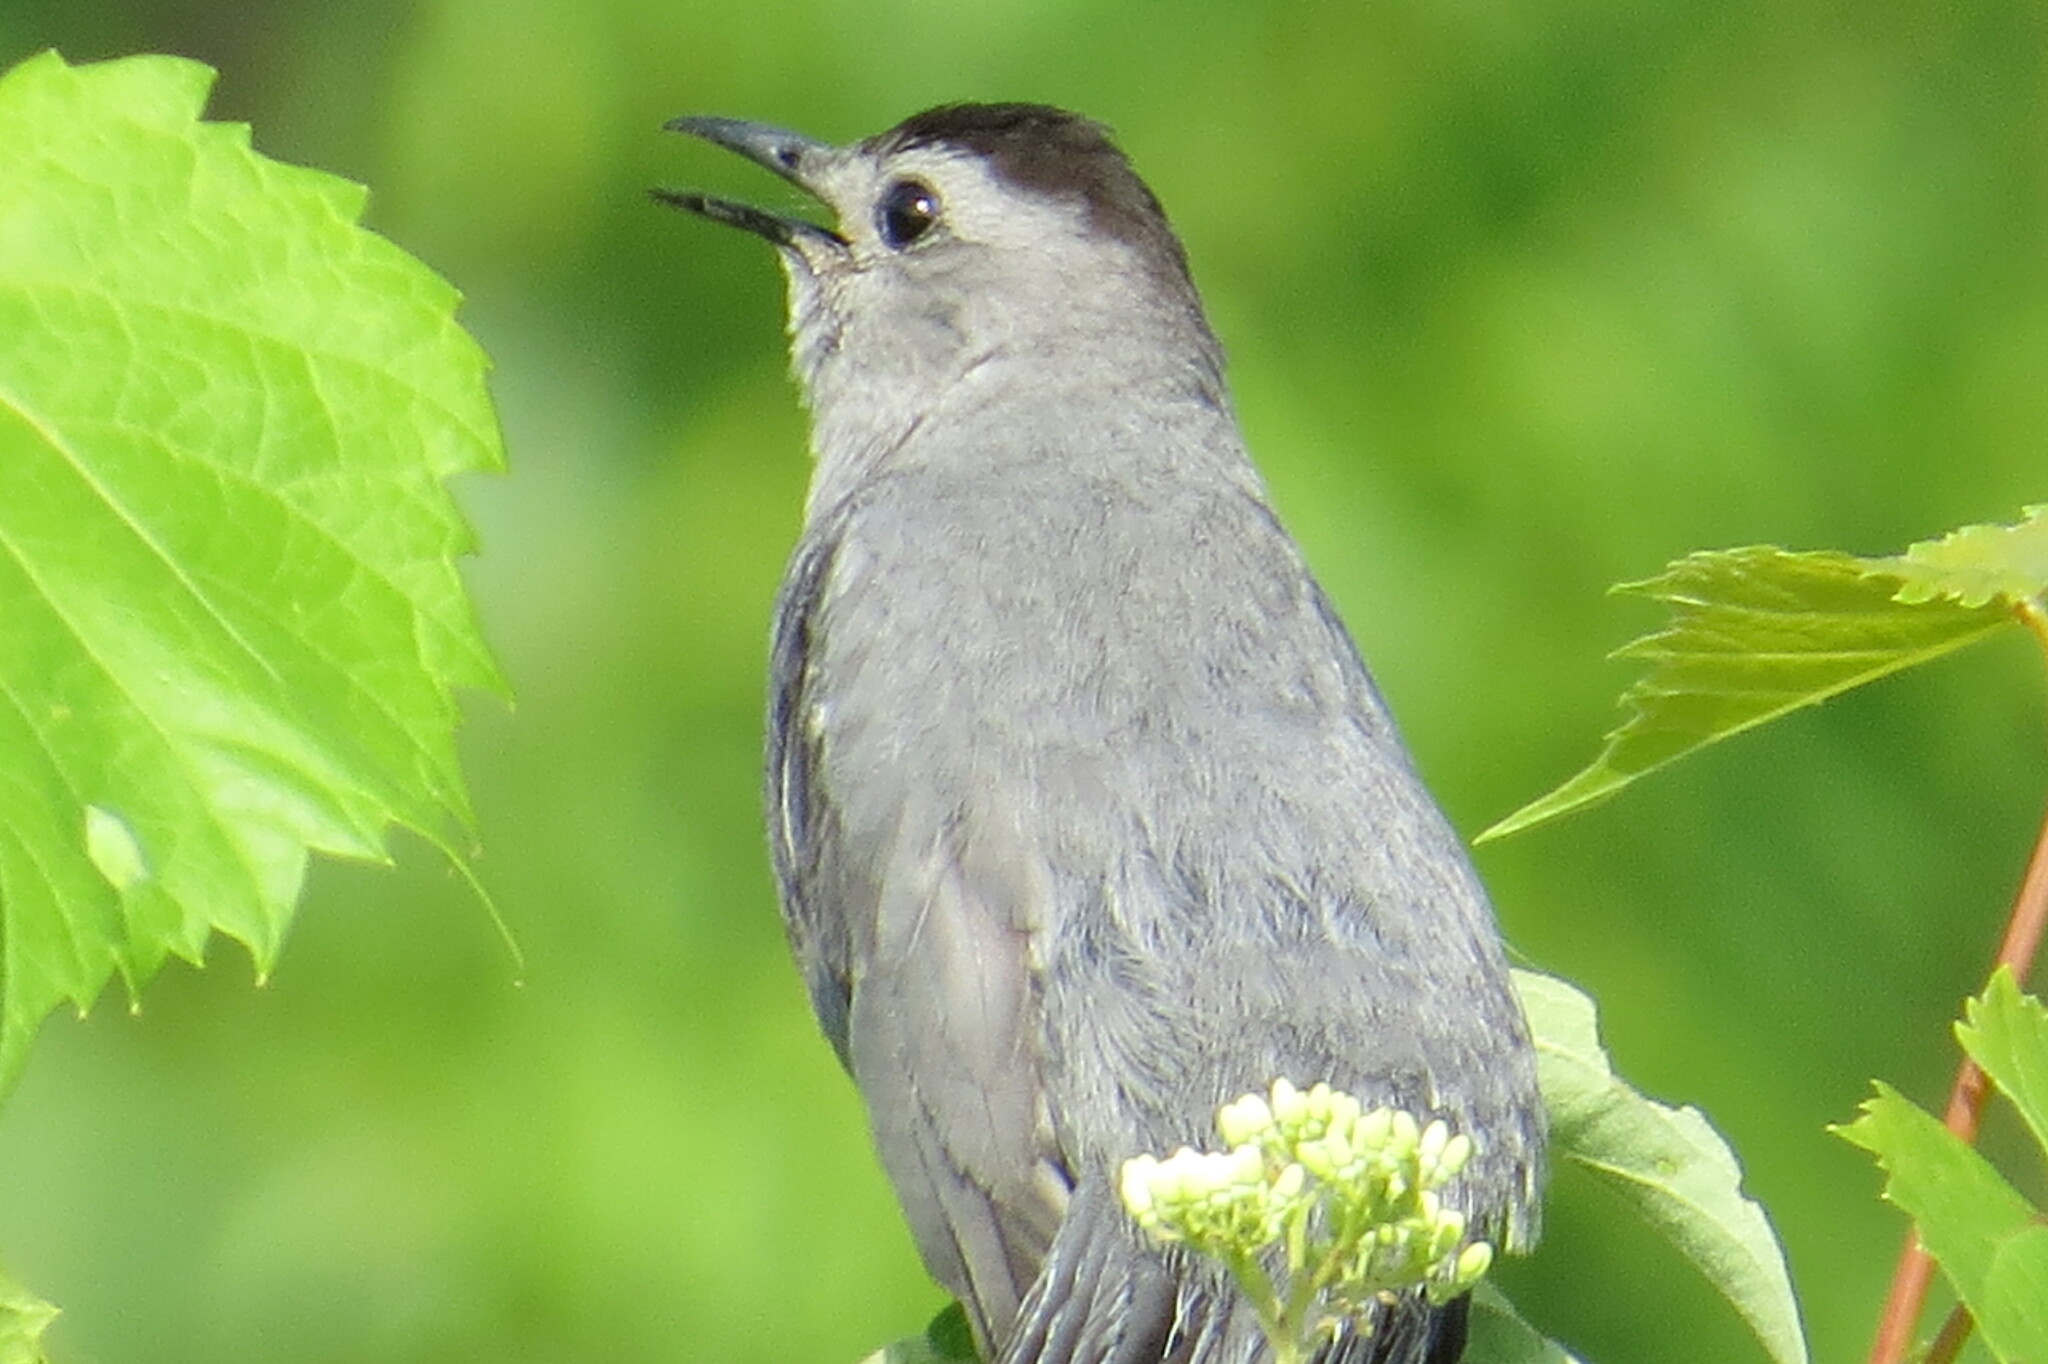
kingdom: Animalia
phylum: Chordata
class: Aves
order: Passeriformes
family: Mimidae
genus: Dumetella
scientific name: Dumetella carolinensis
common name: Gray catbird
